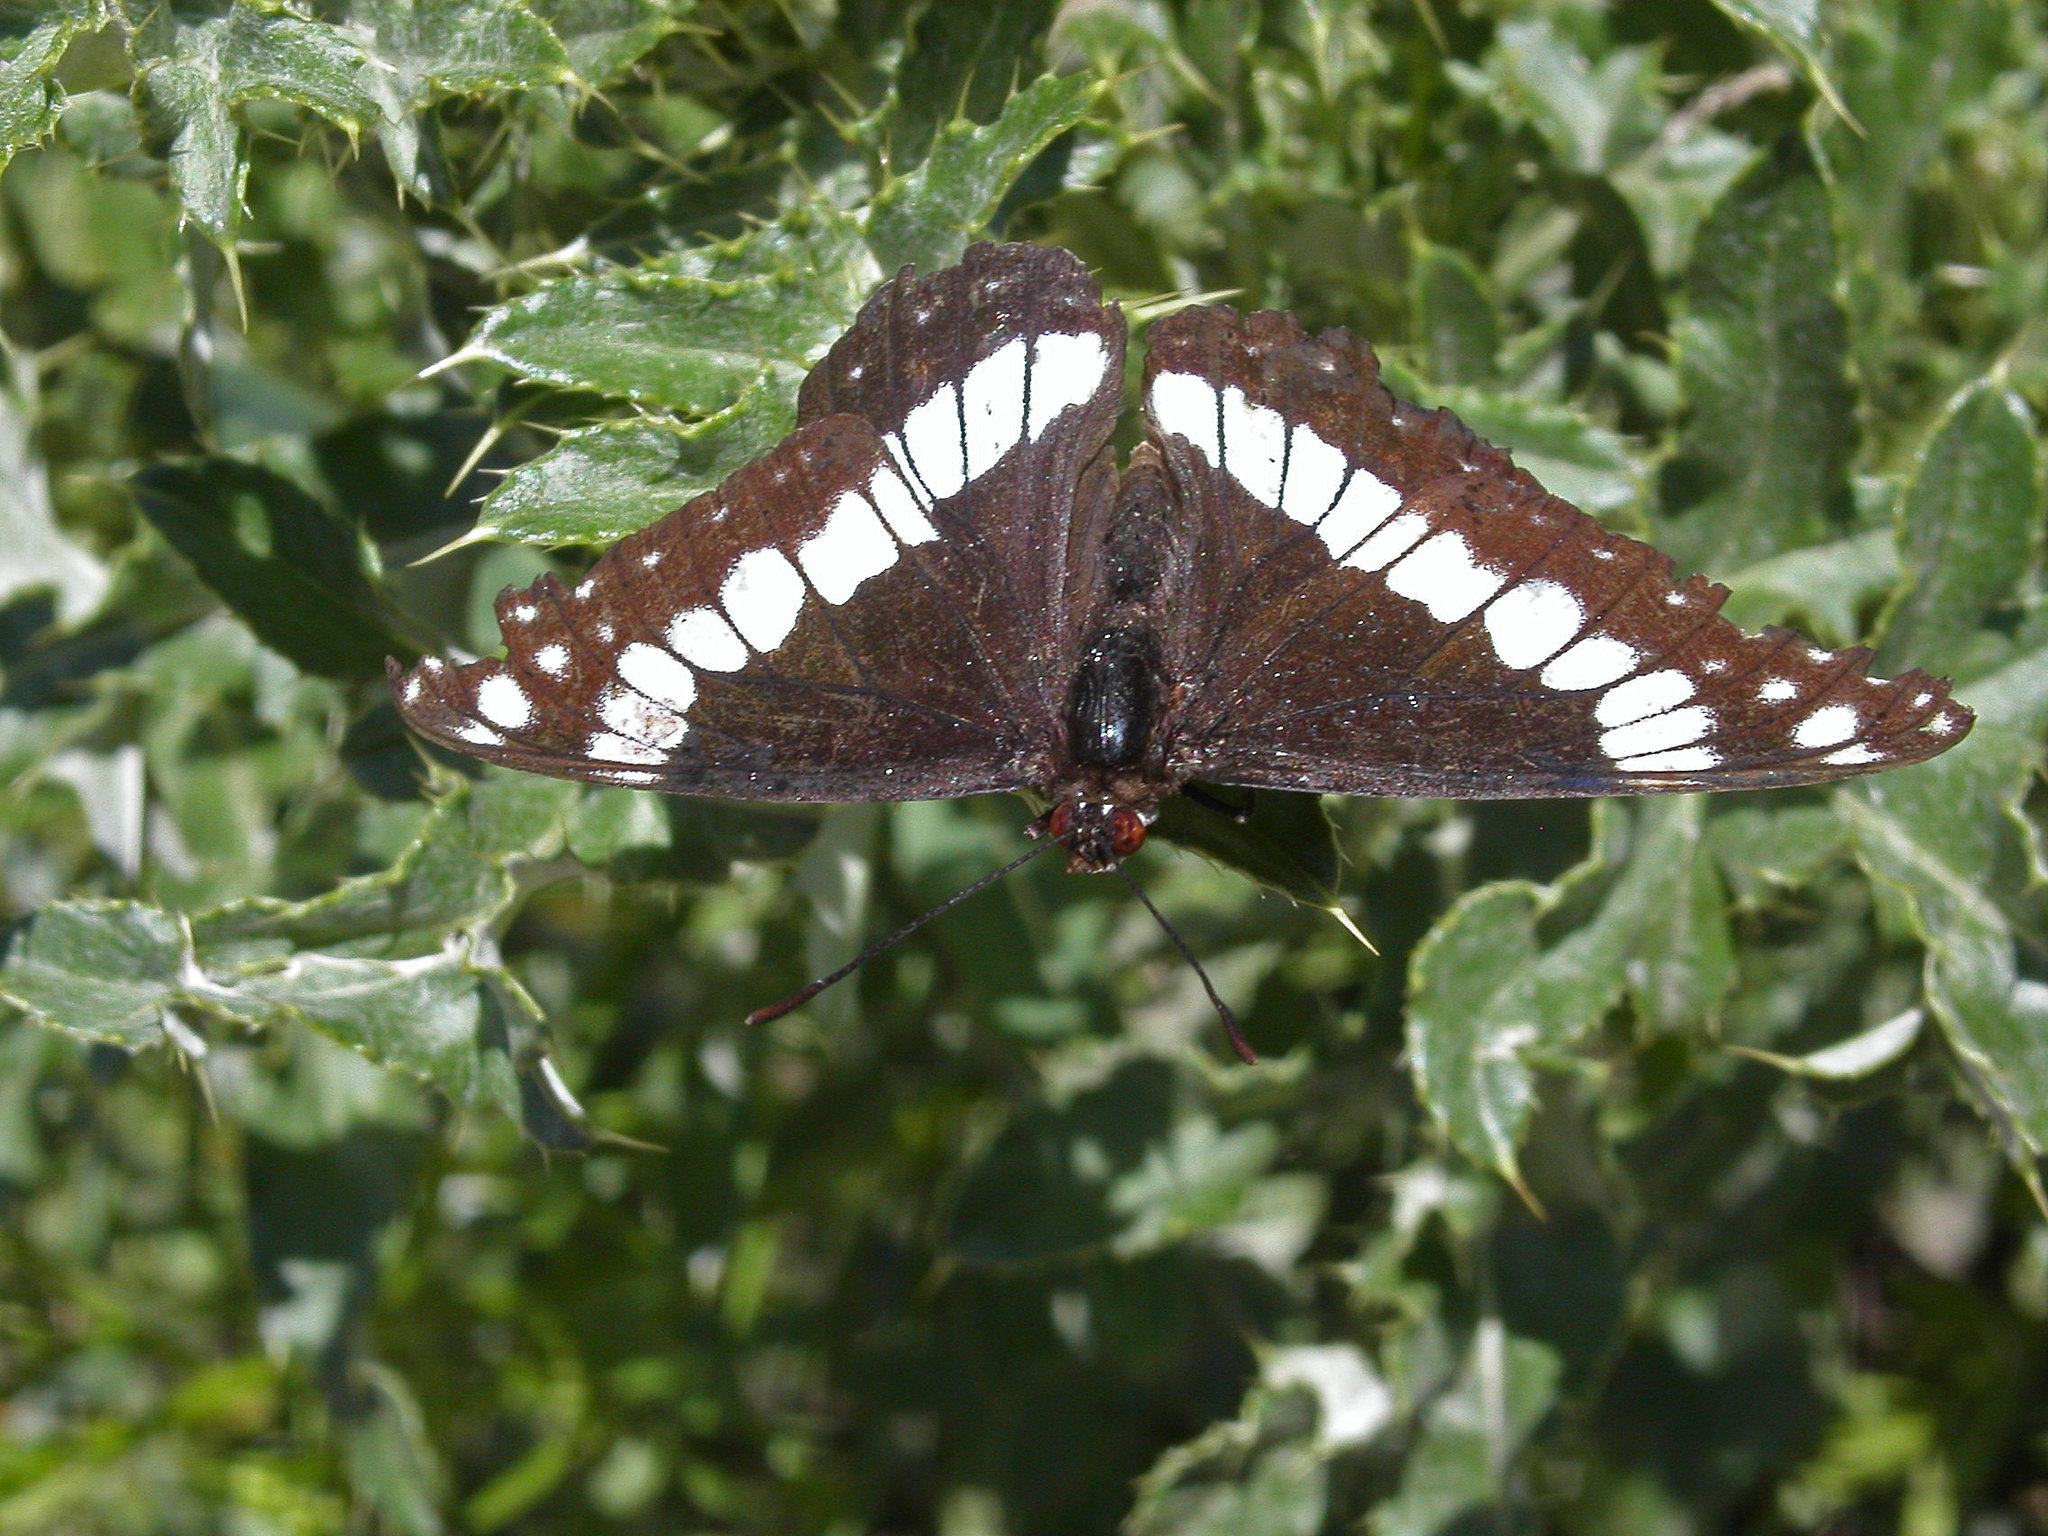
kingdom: Animalia
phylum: Arthropoda
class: Insecta
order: Lepidoptera
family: Nymphalidae
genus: Limenitis
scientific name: Limenitis weidemeyerii
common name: Weidemeyer's admiral
